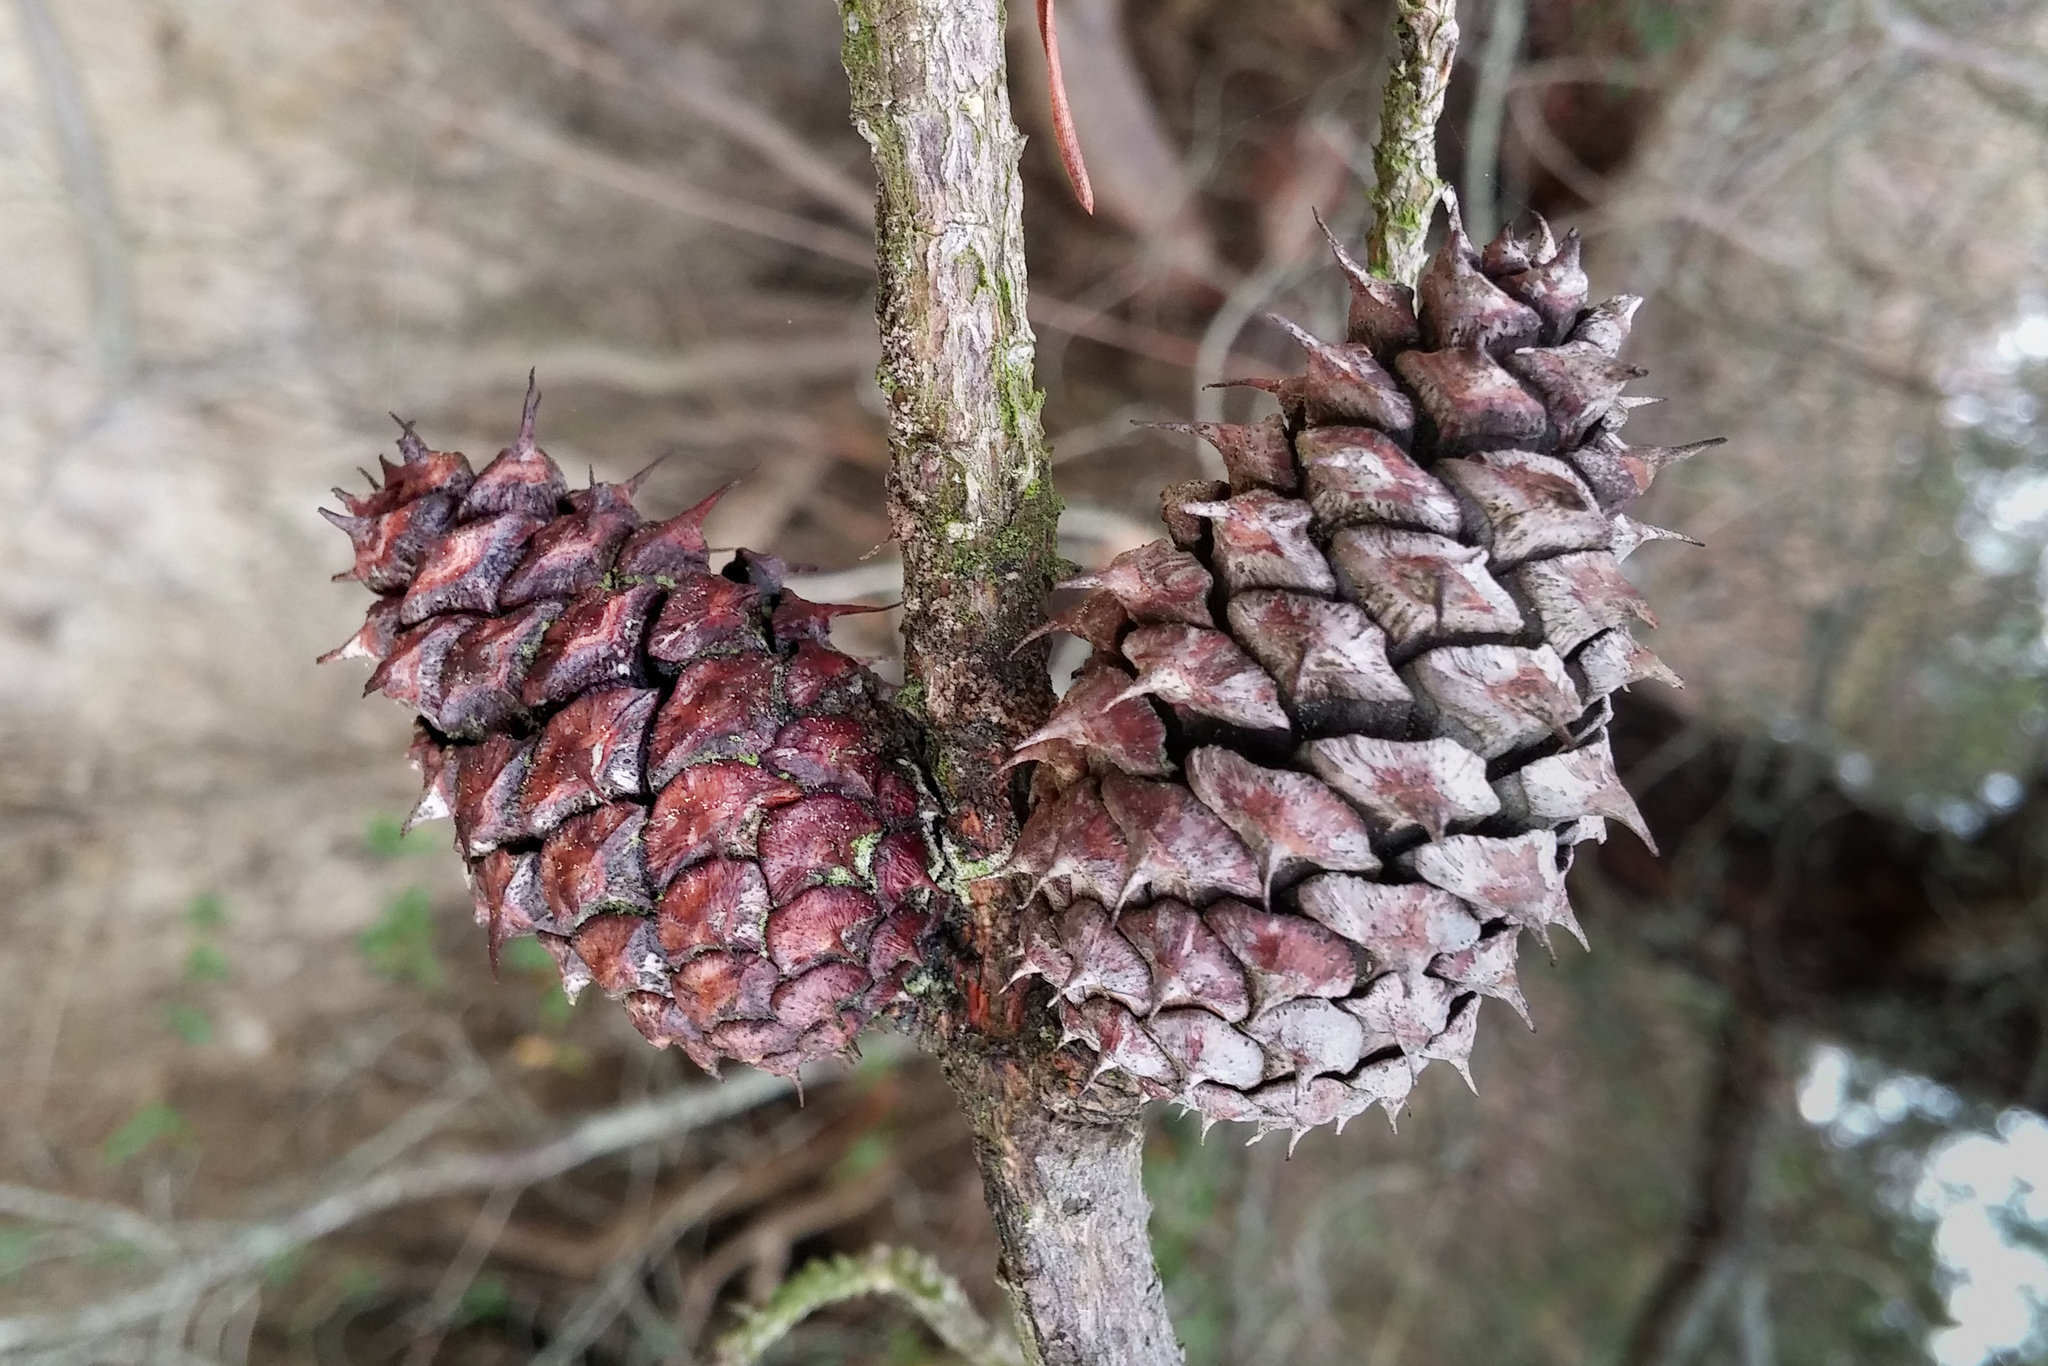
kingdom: Plantae
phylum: Tracheophyta
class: Pinopsida
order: Pinales
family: Pinaceae
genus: Pinus
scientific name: Pinus virginiana
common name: Scrub pine
